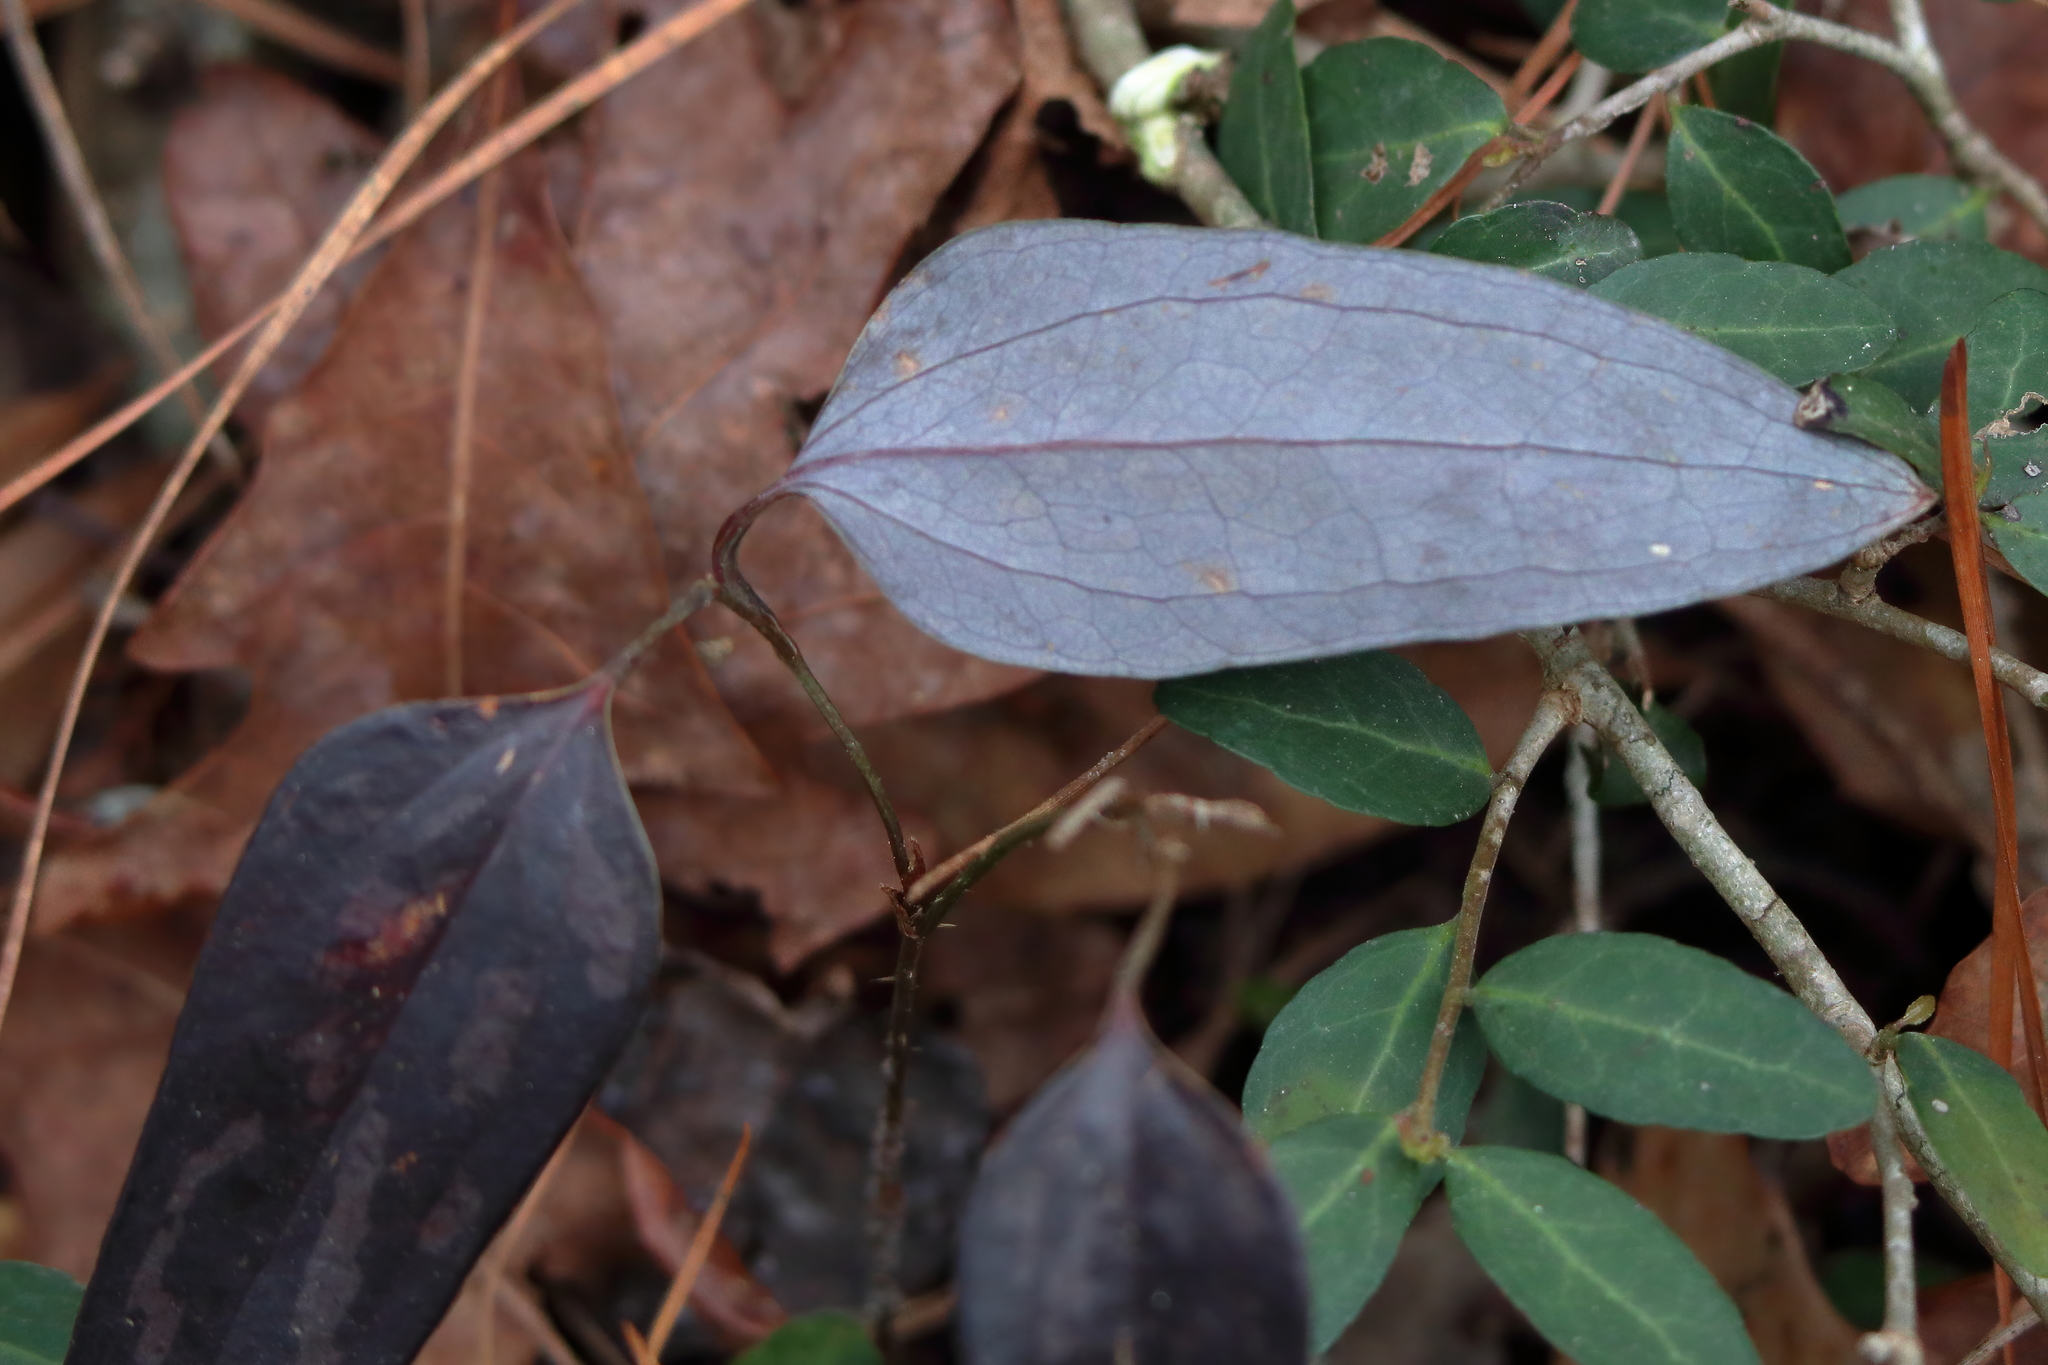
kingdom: Plantae
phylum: Tracheophyta
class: Liliopsida
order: Liliales
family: Smilacaceae
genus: Smilax
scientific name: Smilax maritima
